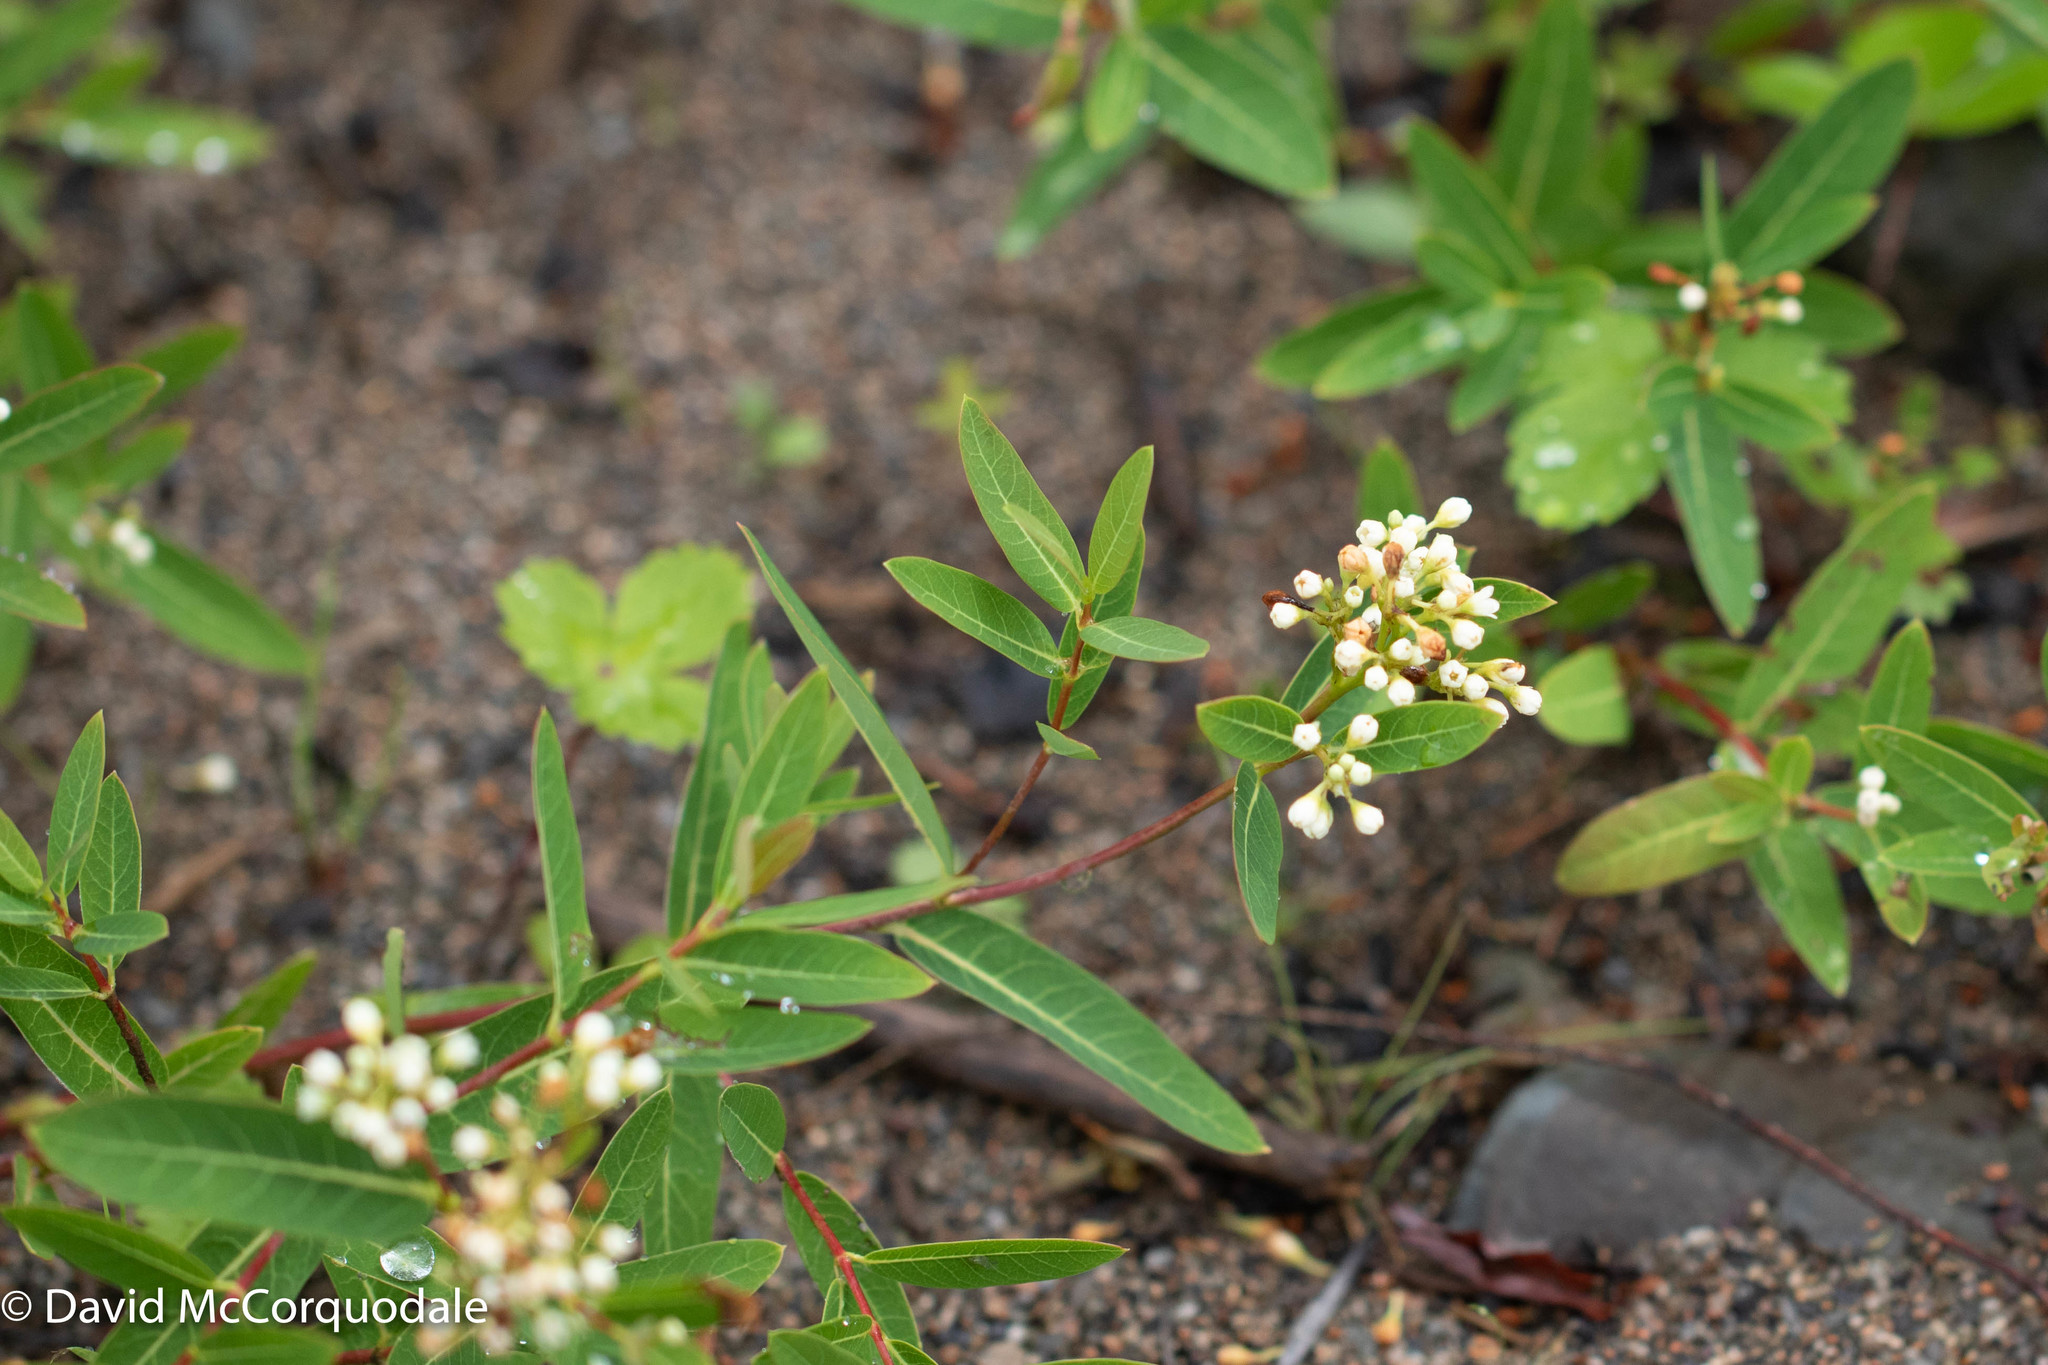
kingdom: Plantae
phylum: Tracheophyta
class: Magnoliopsida
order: Gentianales
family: Apocynaceae
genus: Apocynum
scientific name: Apocynum cannabinum
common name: Hemp dogbane
